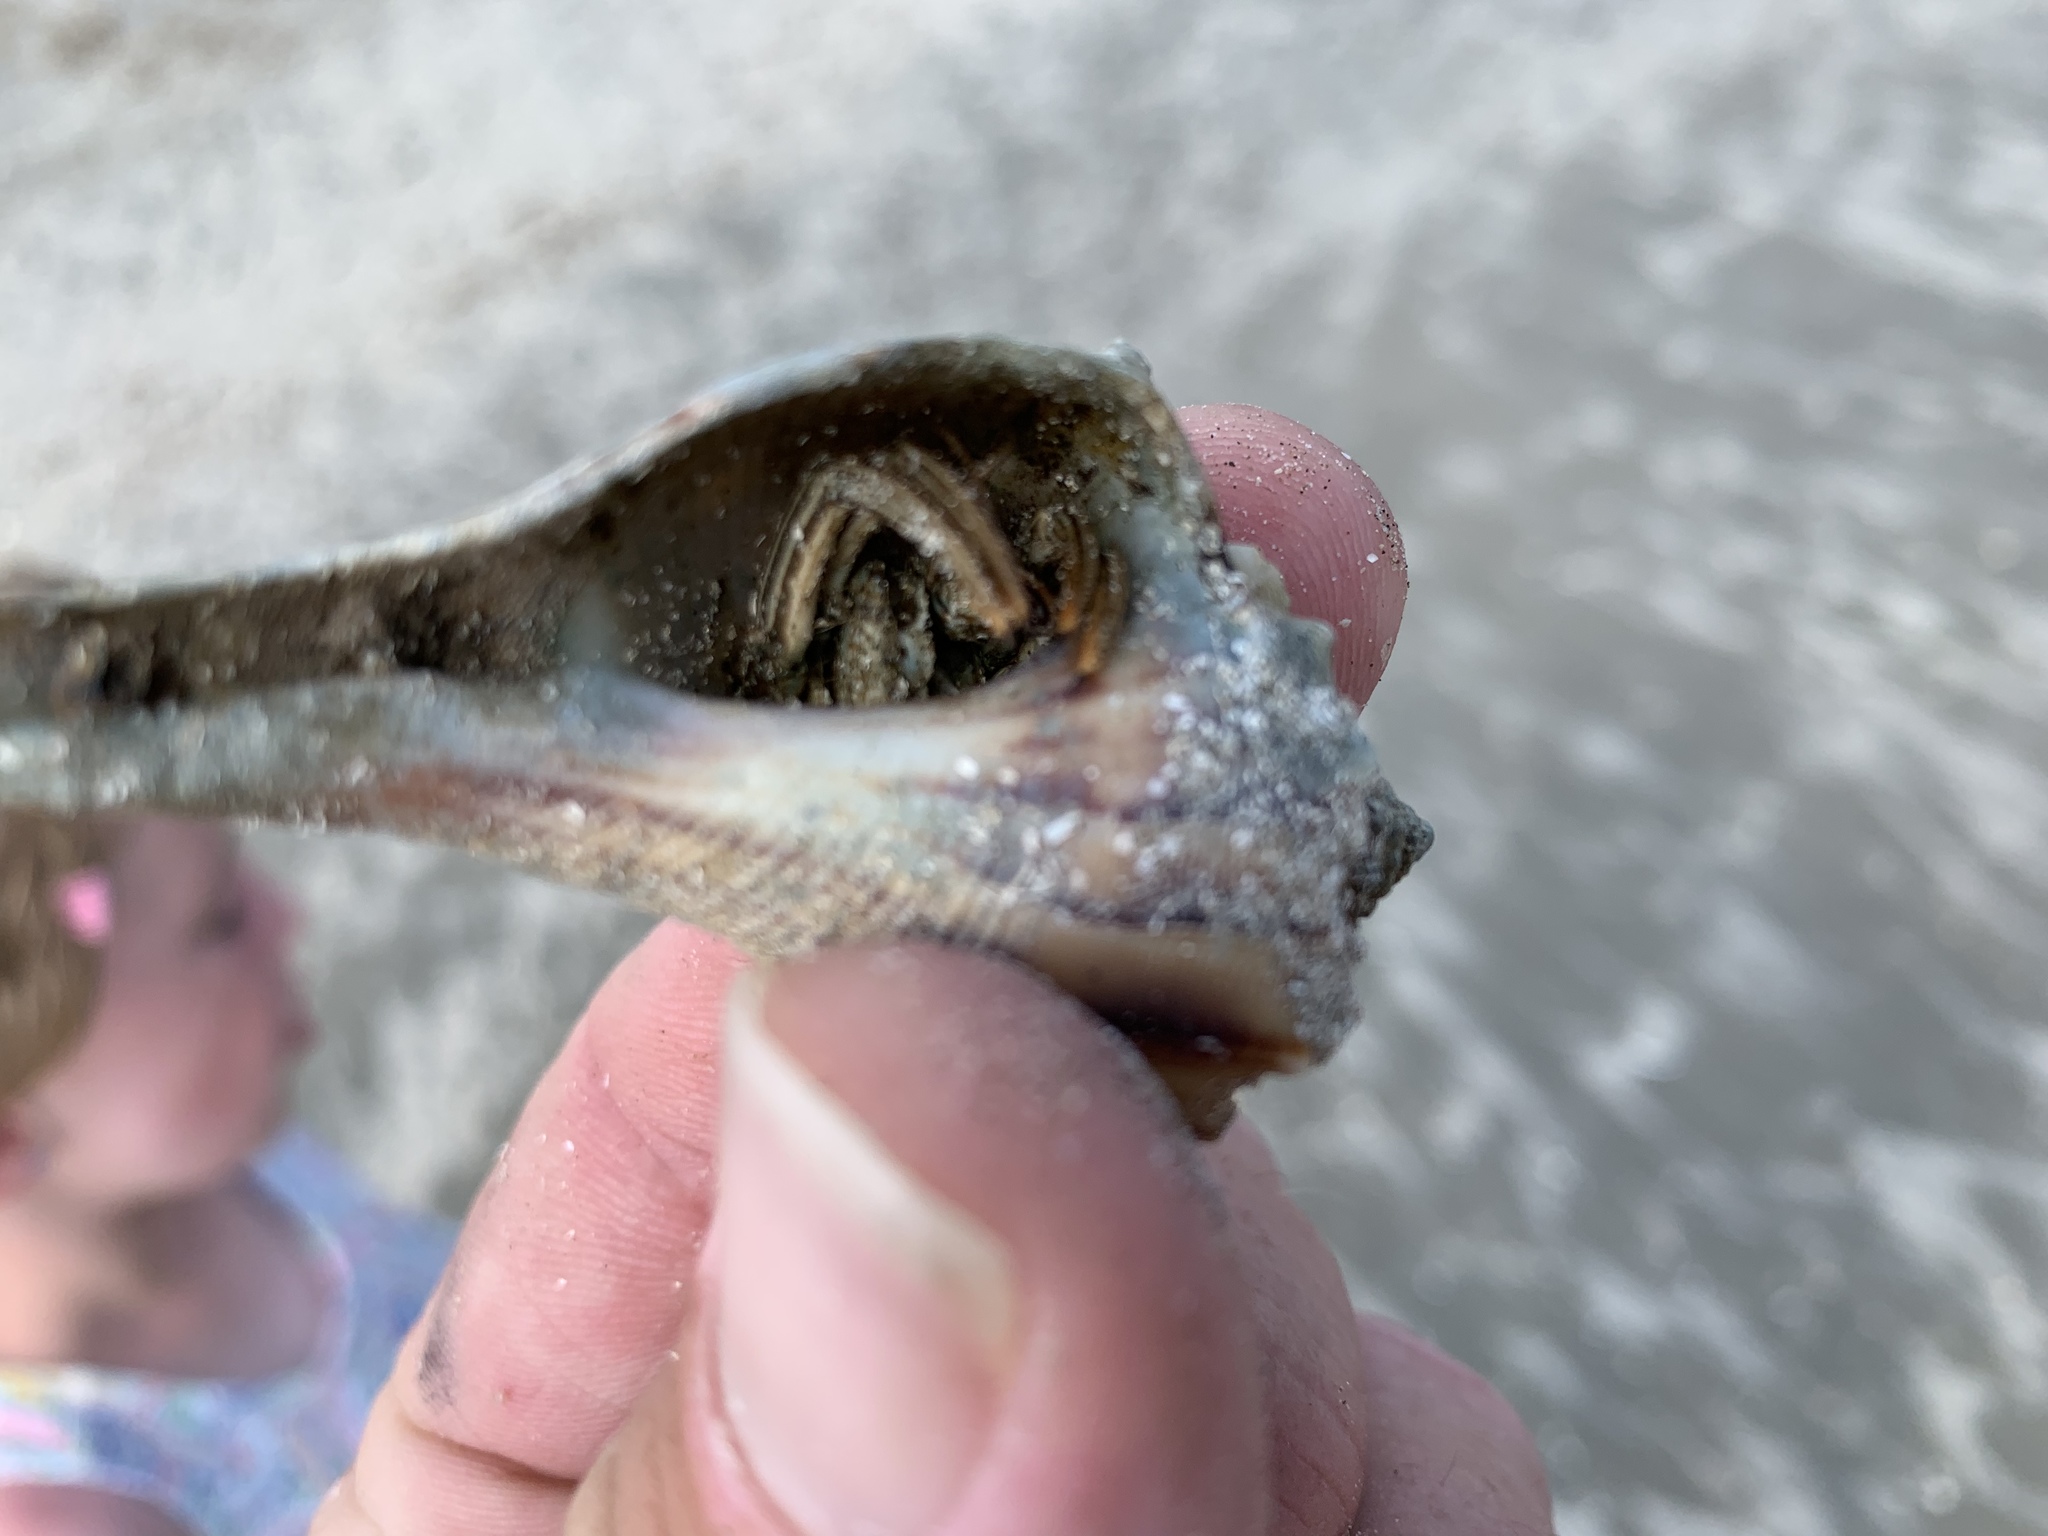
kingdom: Animalia
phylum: Arthropoda
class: Malacostraca
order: Decapoda
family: Diogenidae
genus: Clibanarius
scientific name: Clibanarius vittatus
